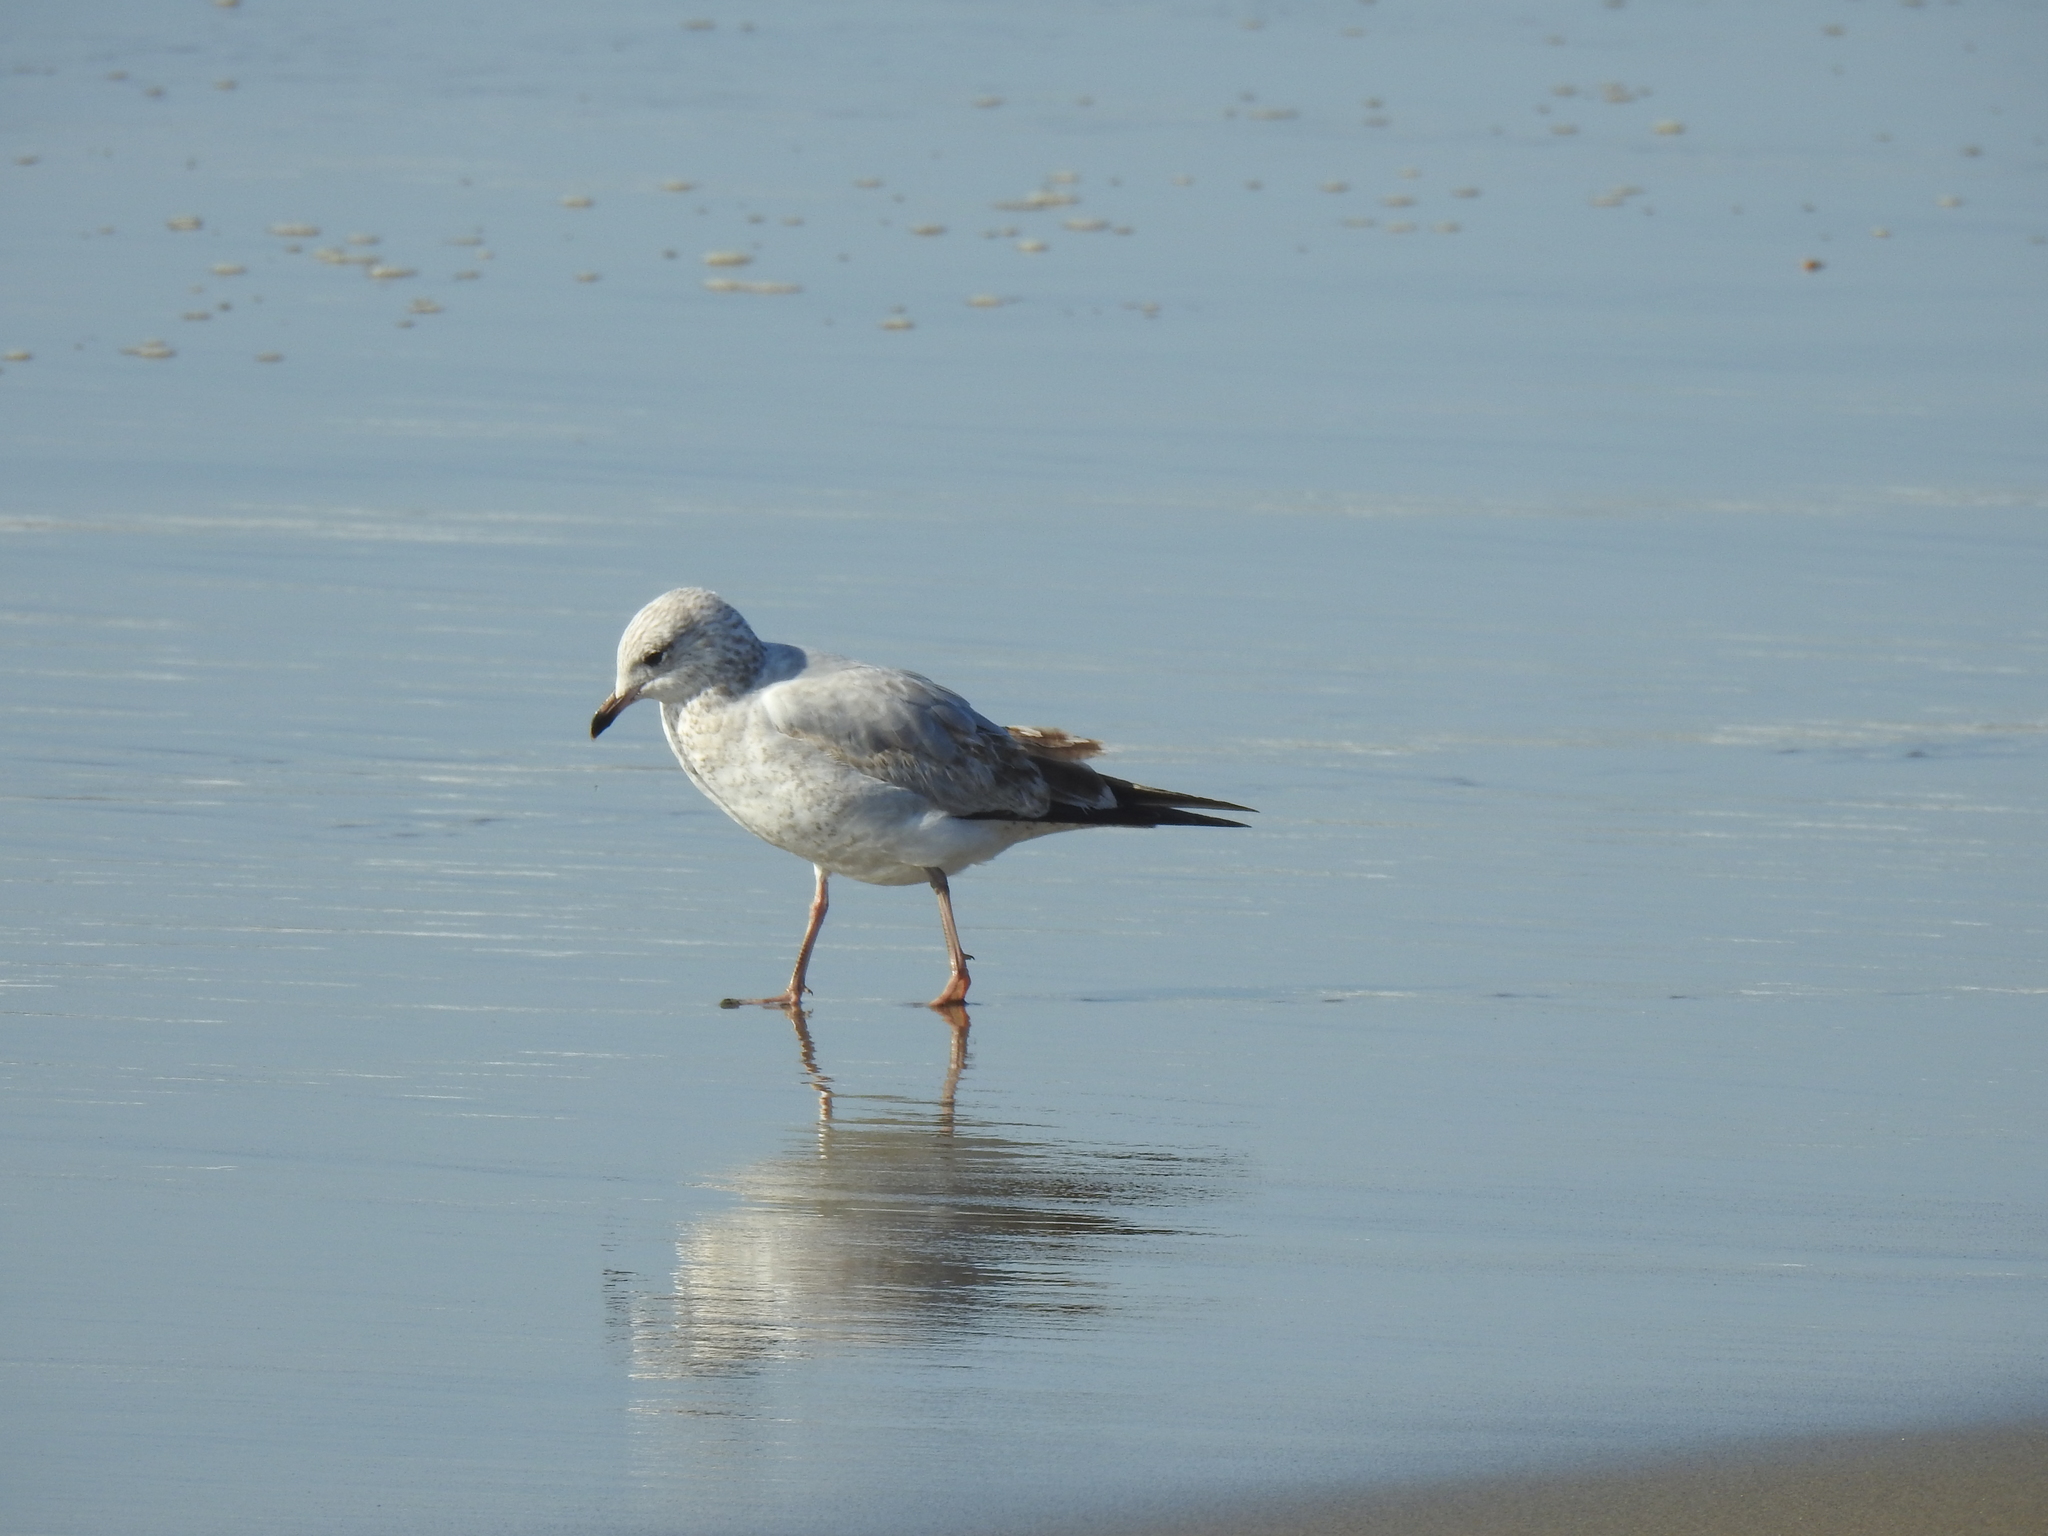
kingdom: Animalia
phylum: Chordata
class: Aves
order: Charadriiformes
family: Laridae
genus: Larus
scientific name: Larus delawarensis
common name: Ring-billed gull
